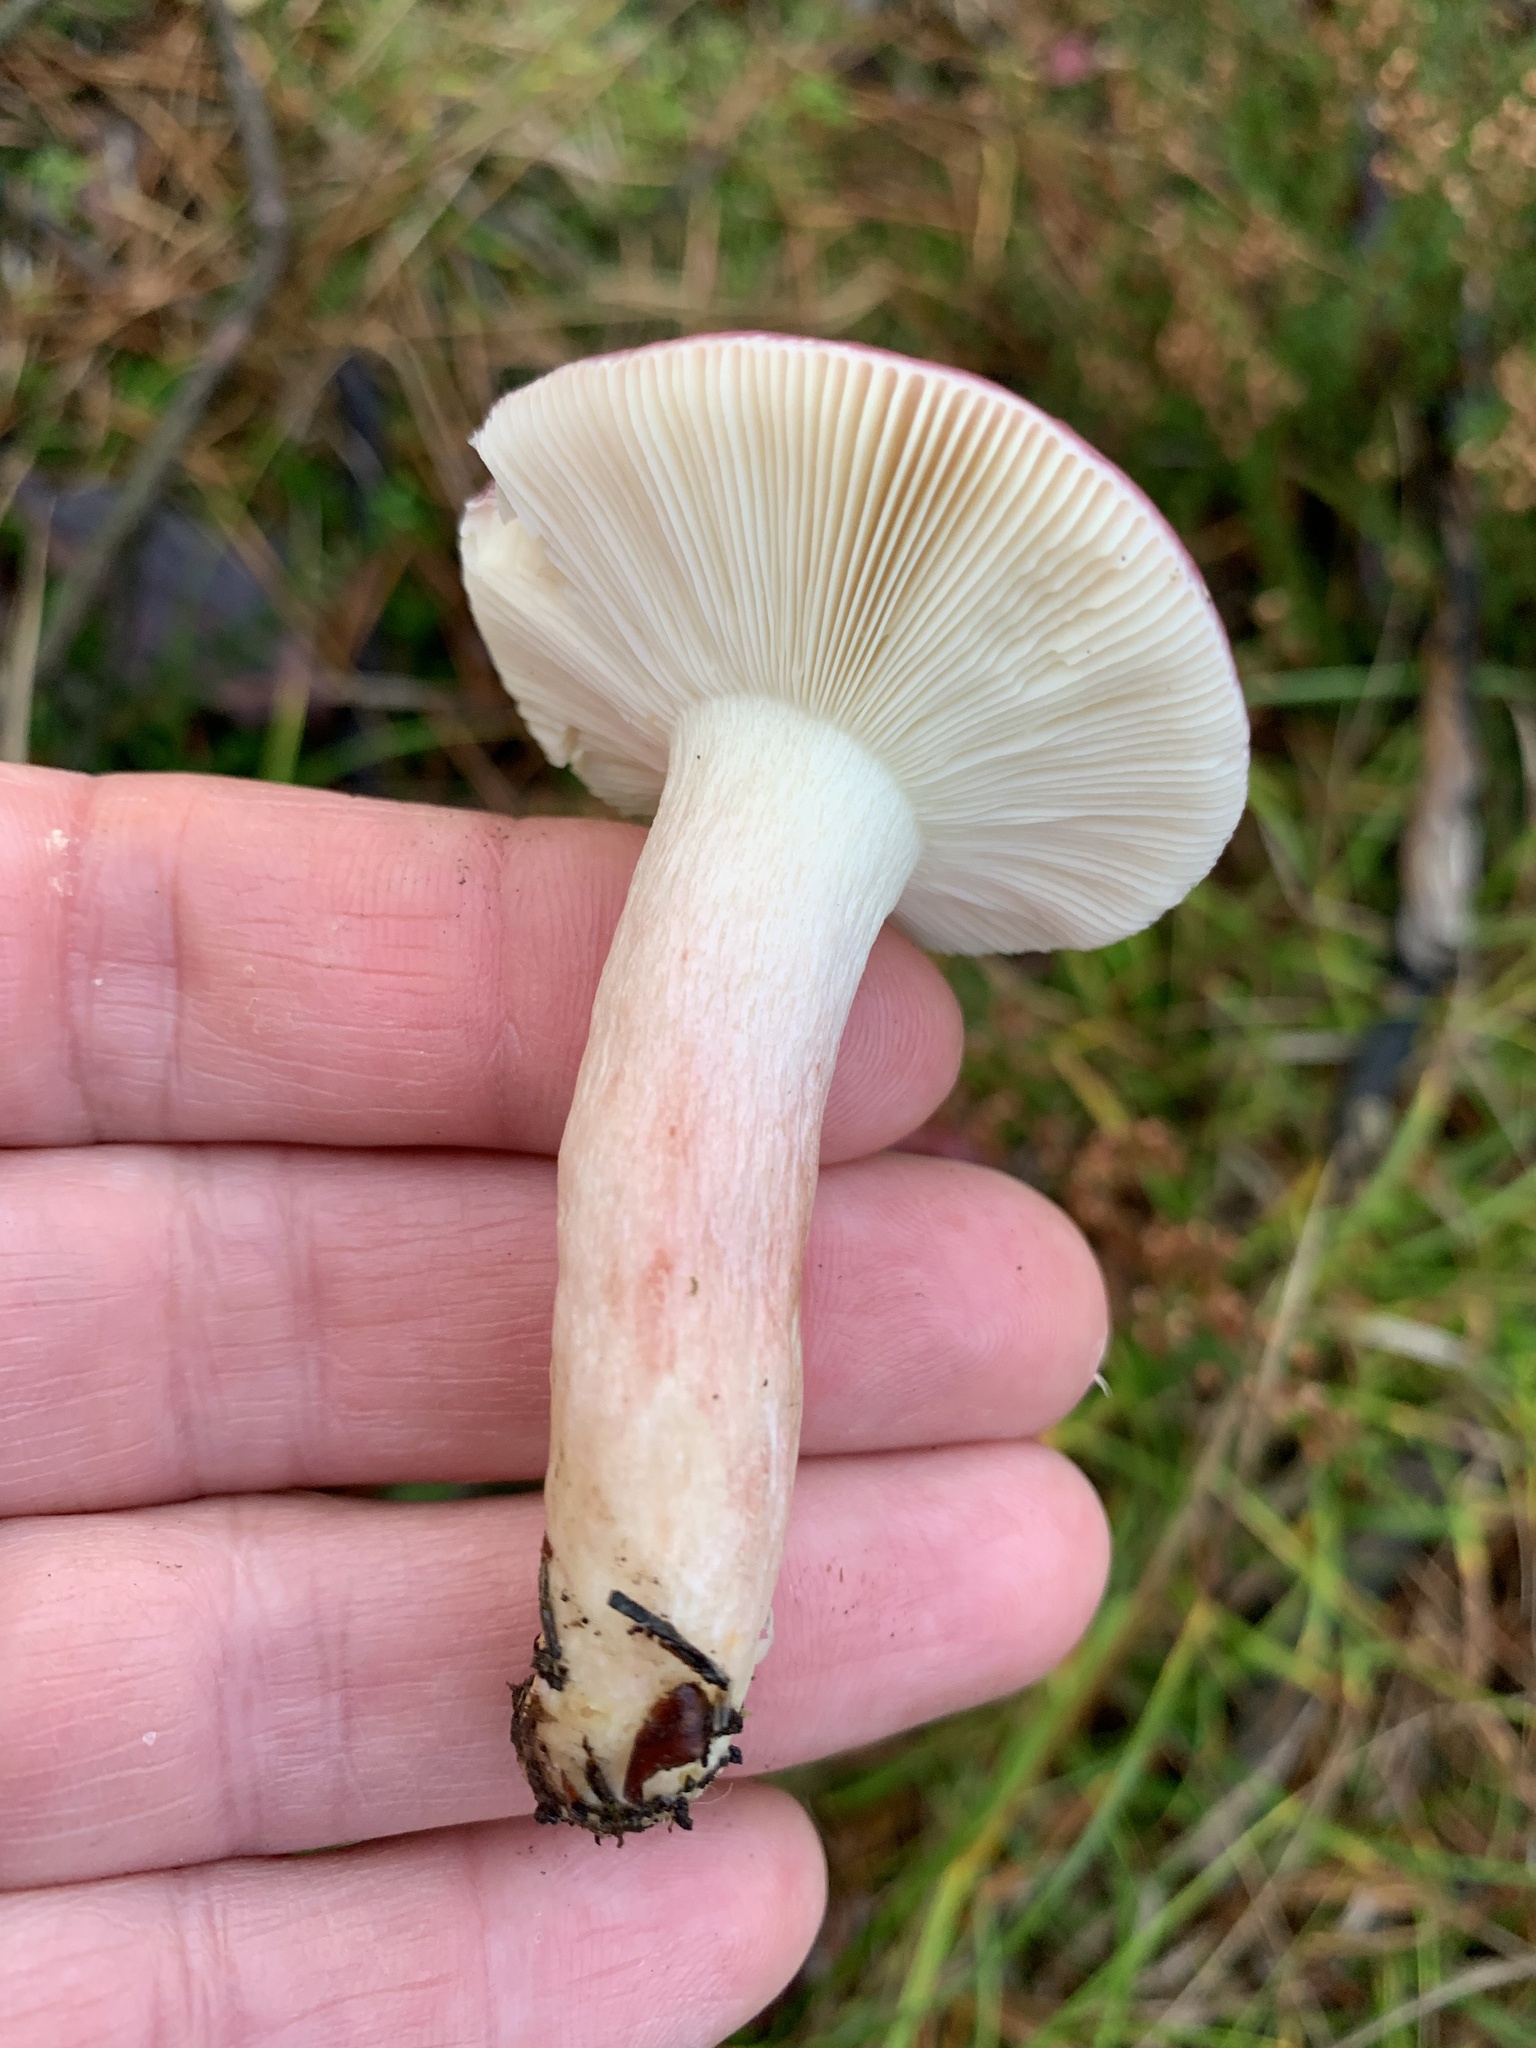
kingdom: Fungi
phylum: Basidiomycota
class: Agaricomycetes
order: Russulales
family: Russulaceae
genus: Russula
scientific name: Russula xerampelina
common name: Crab brittlegill
